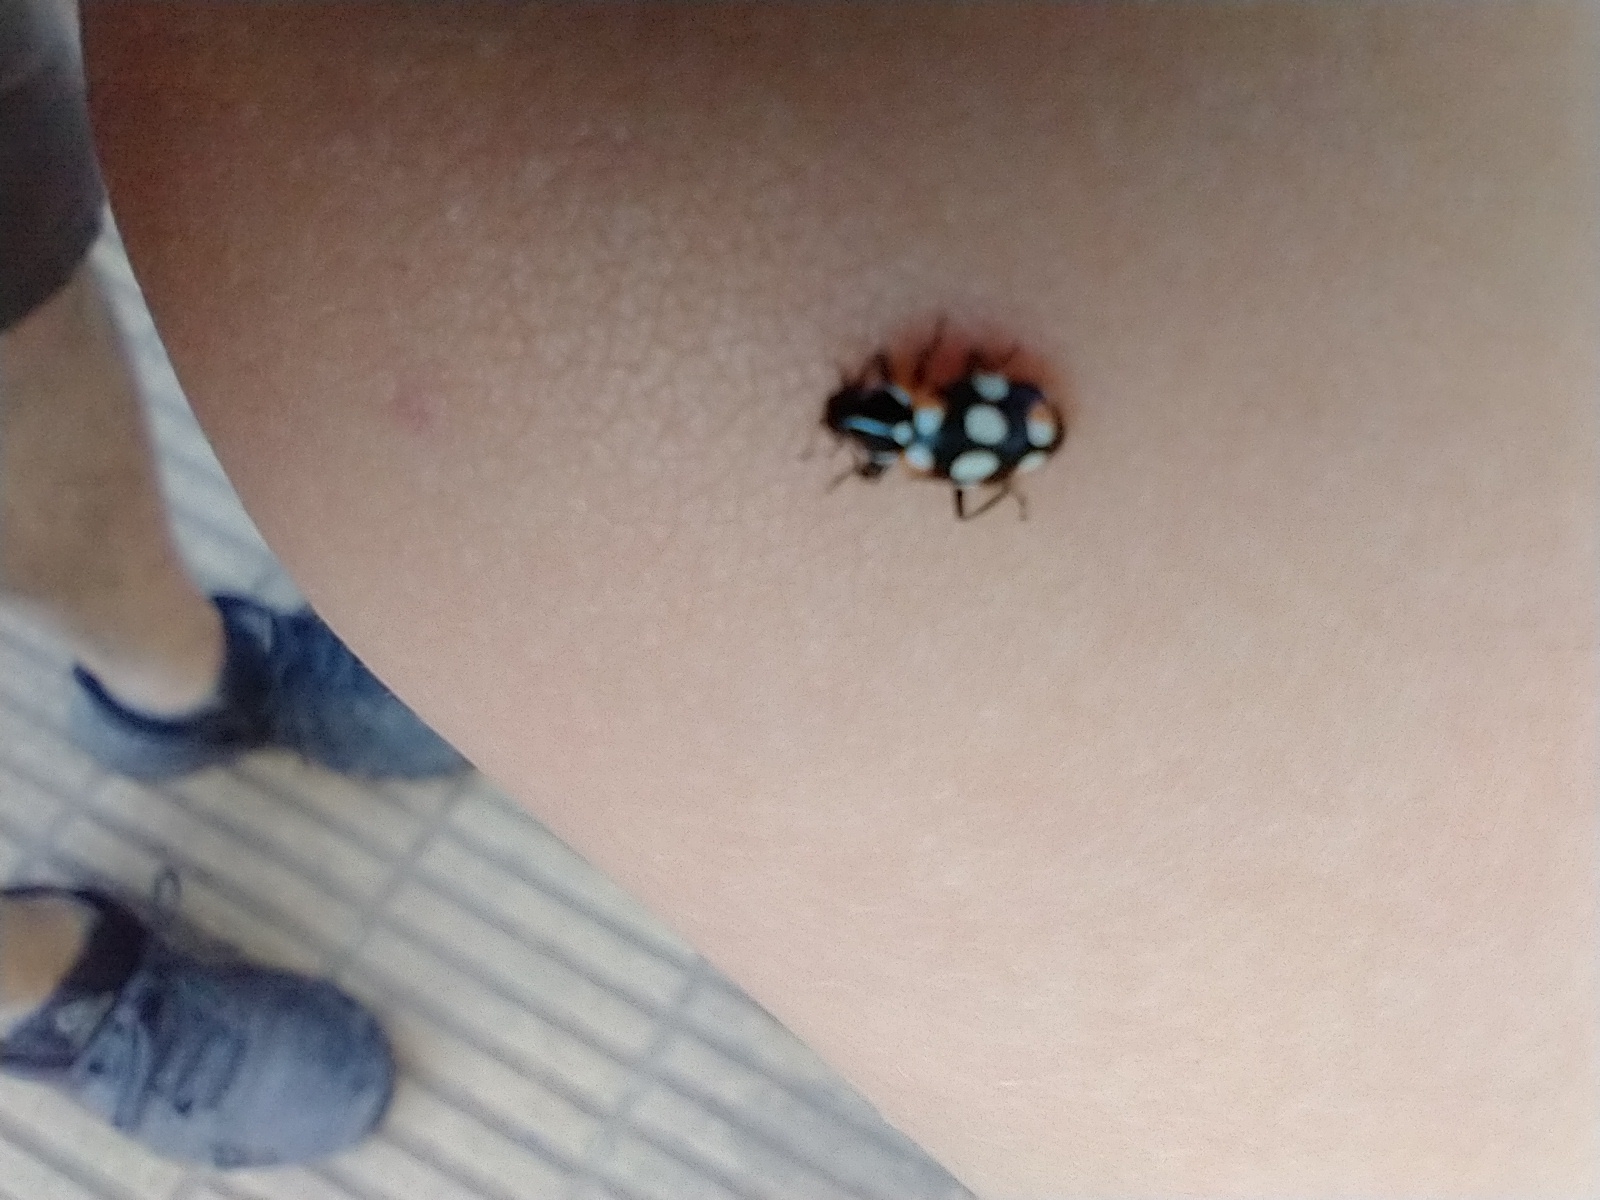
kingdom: Animalia
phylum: Arthropoda
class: Insecta
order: Coleoptera
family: Coccinellidae
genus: Eriopis
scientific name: Eriopis connexa
